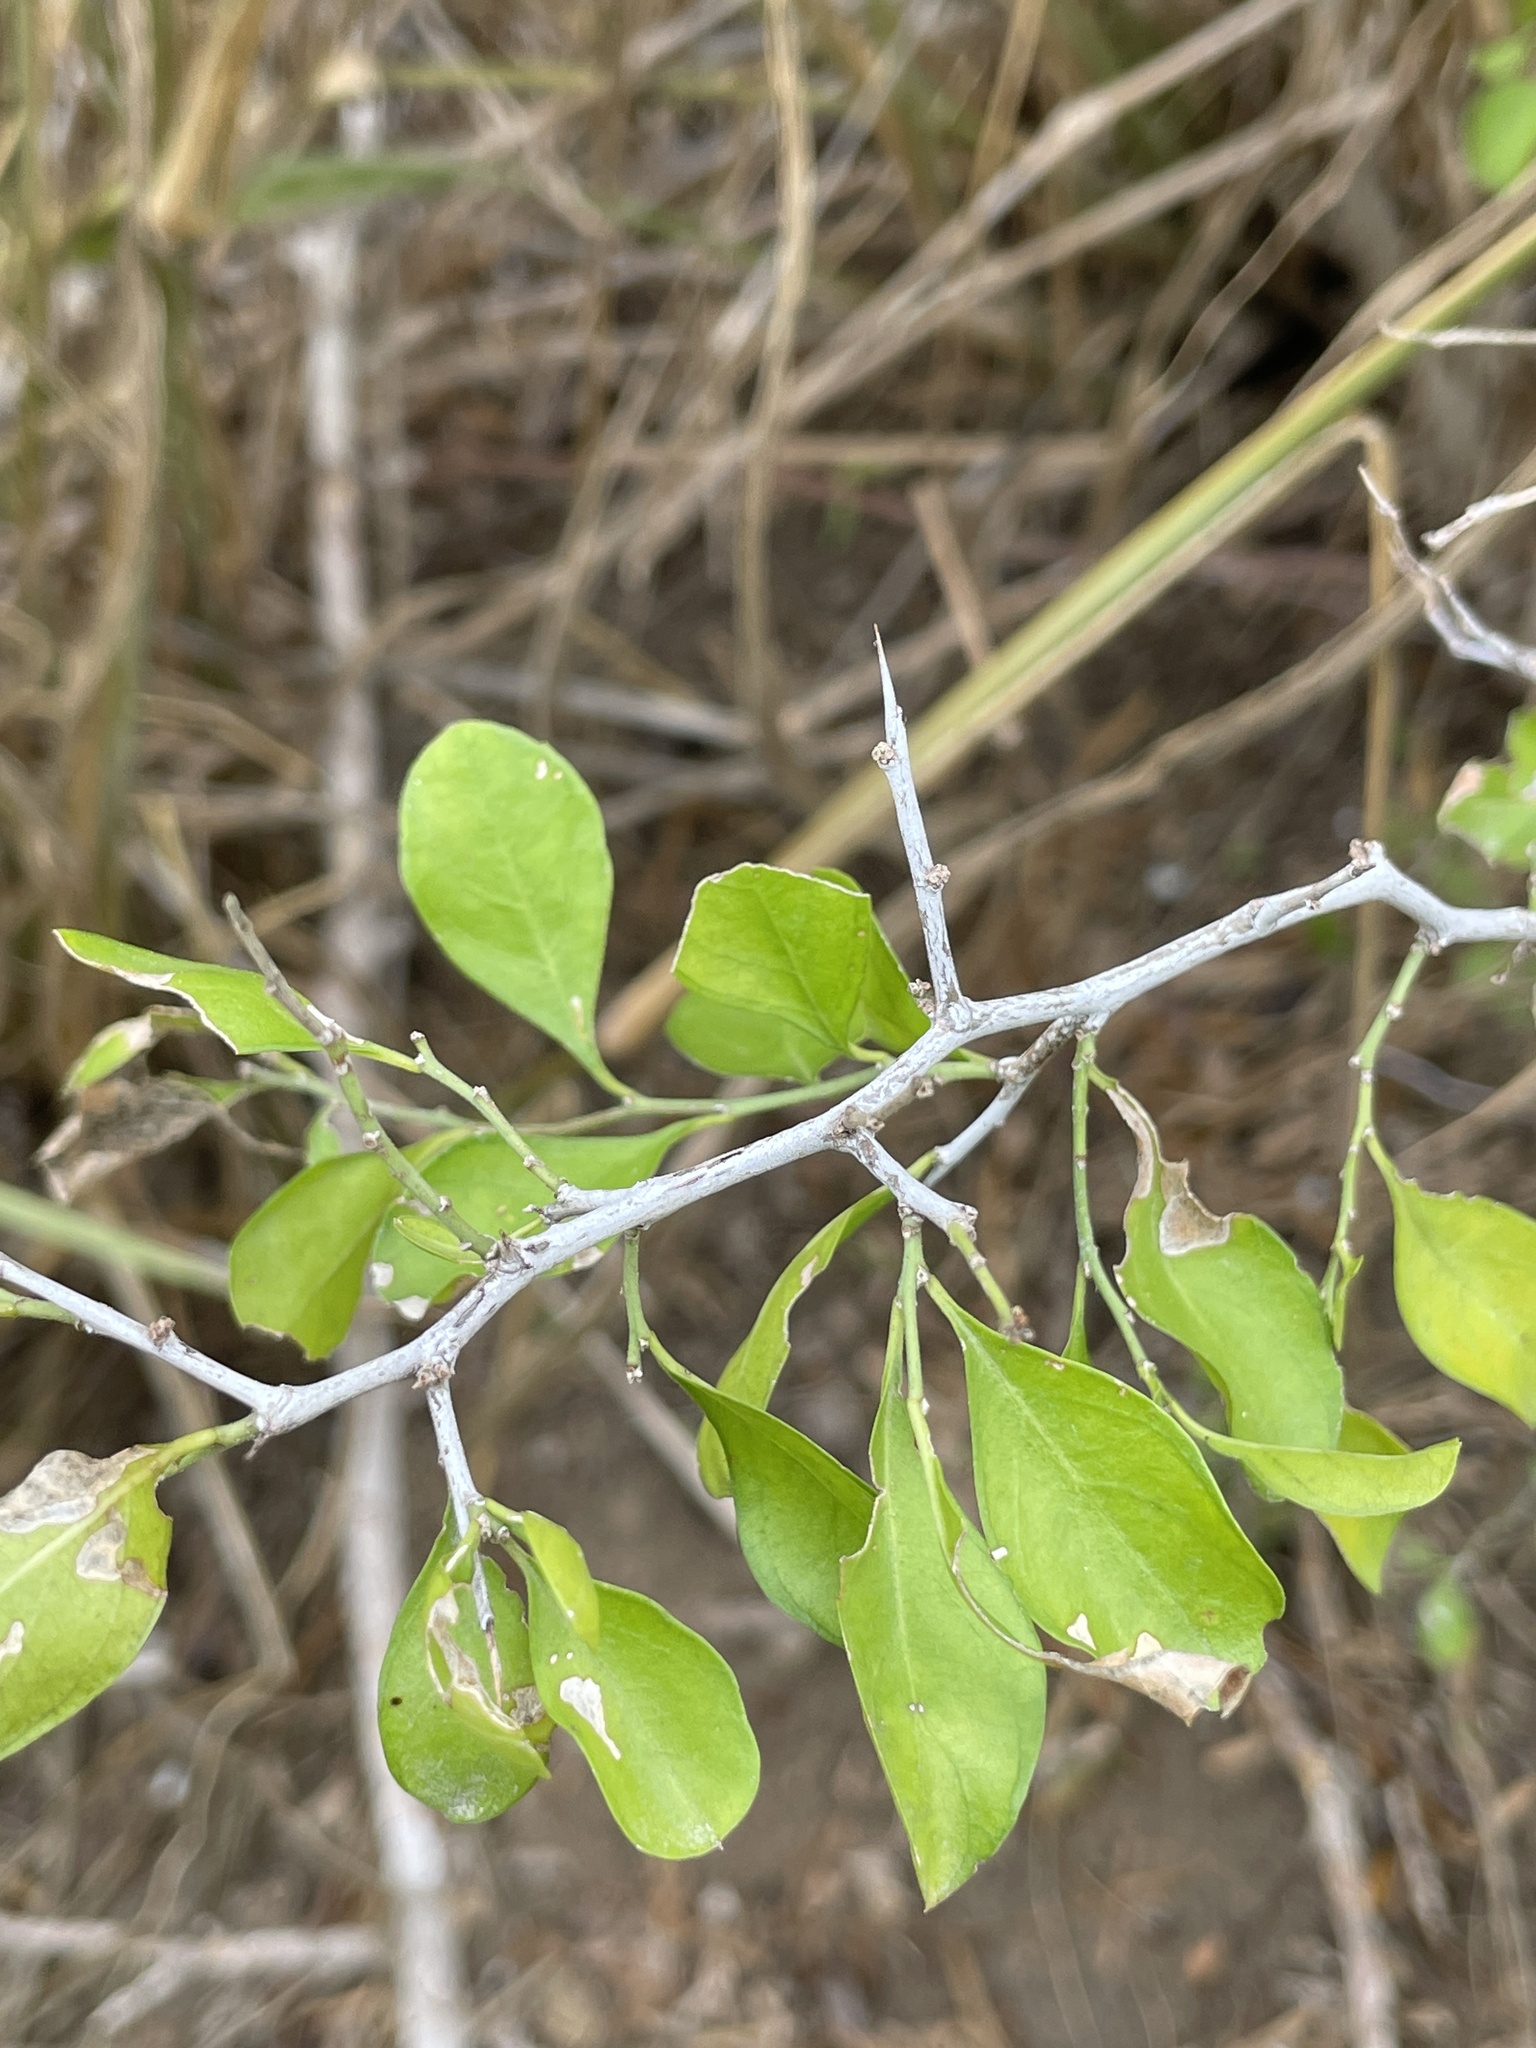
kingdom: Plantae
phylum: Tracheophyta
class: Magnoliopsida
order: Rosales
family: Rhamnaceae
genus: Condalia
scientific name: Condalia hookeri
